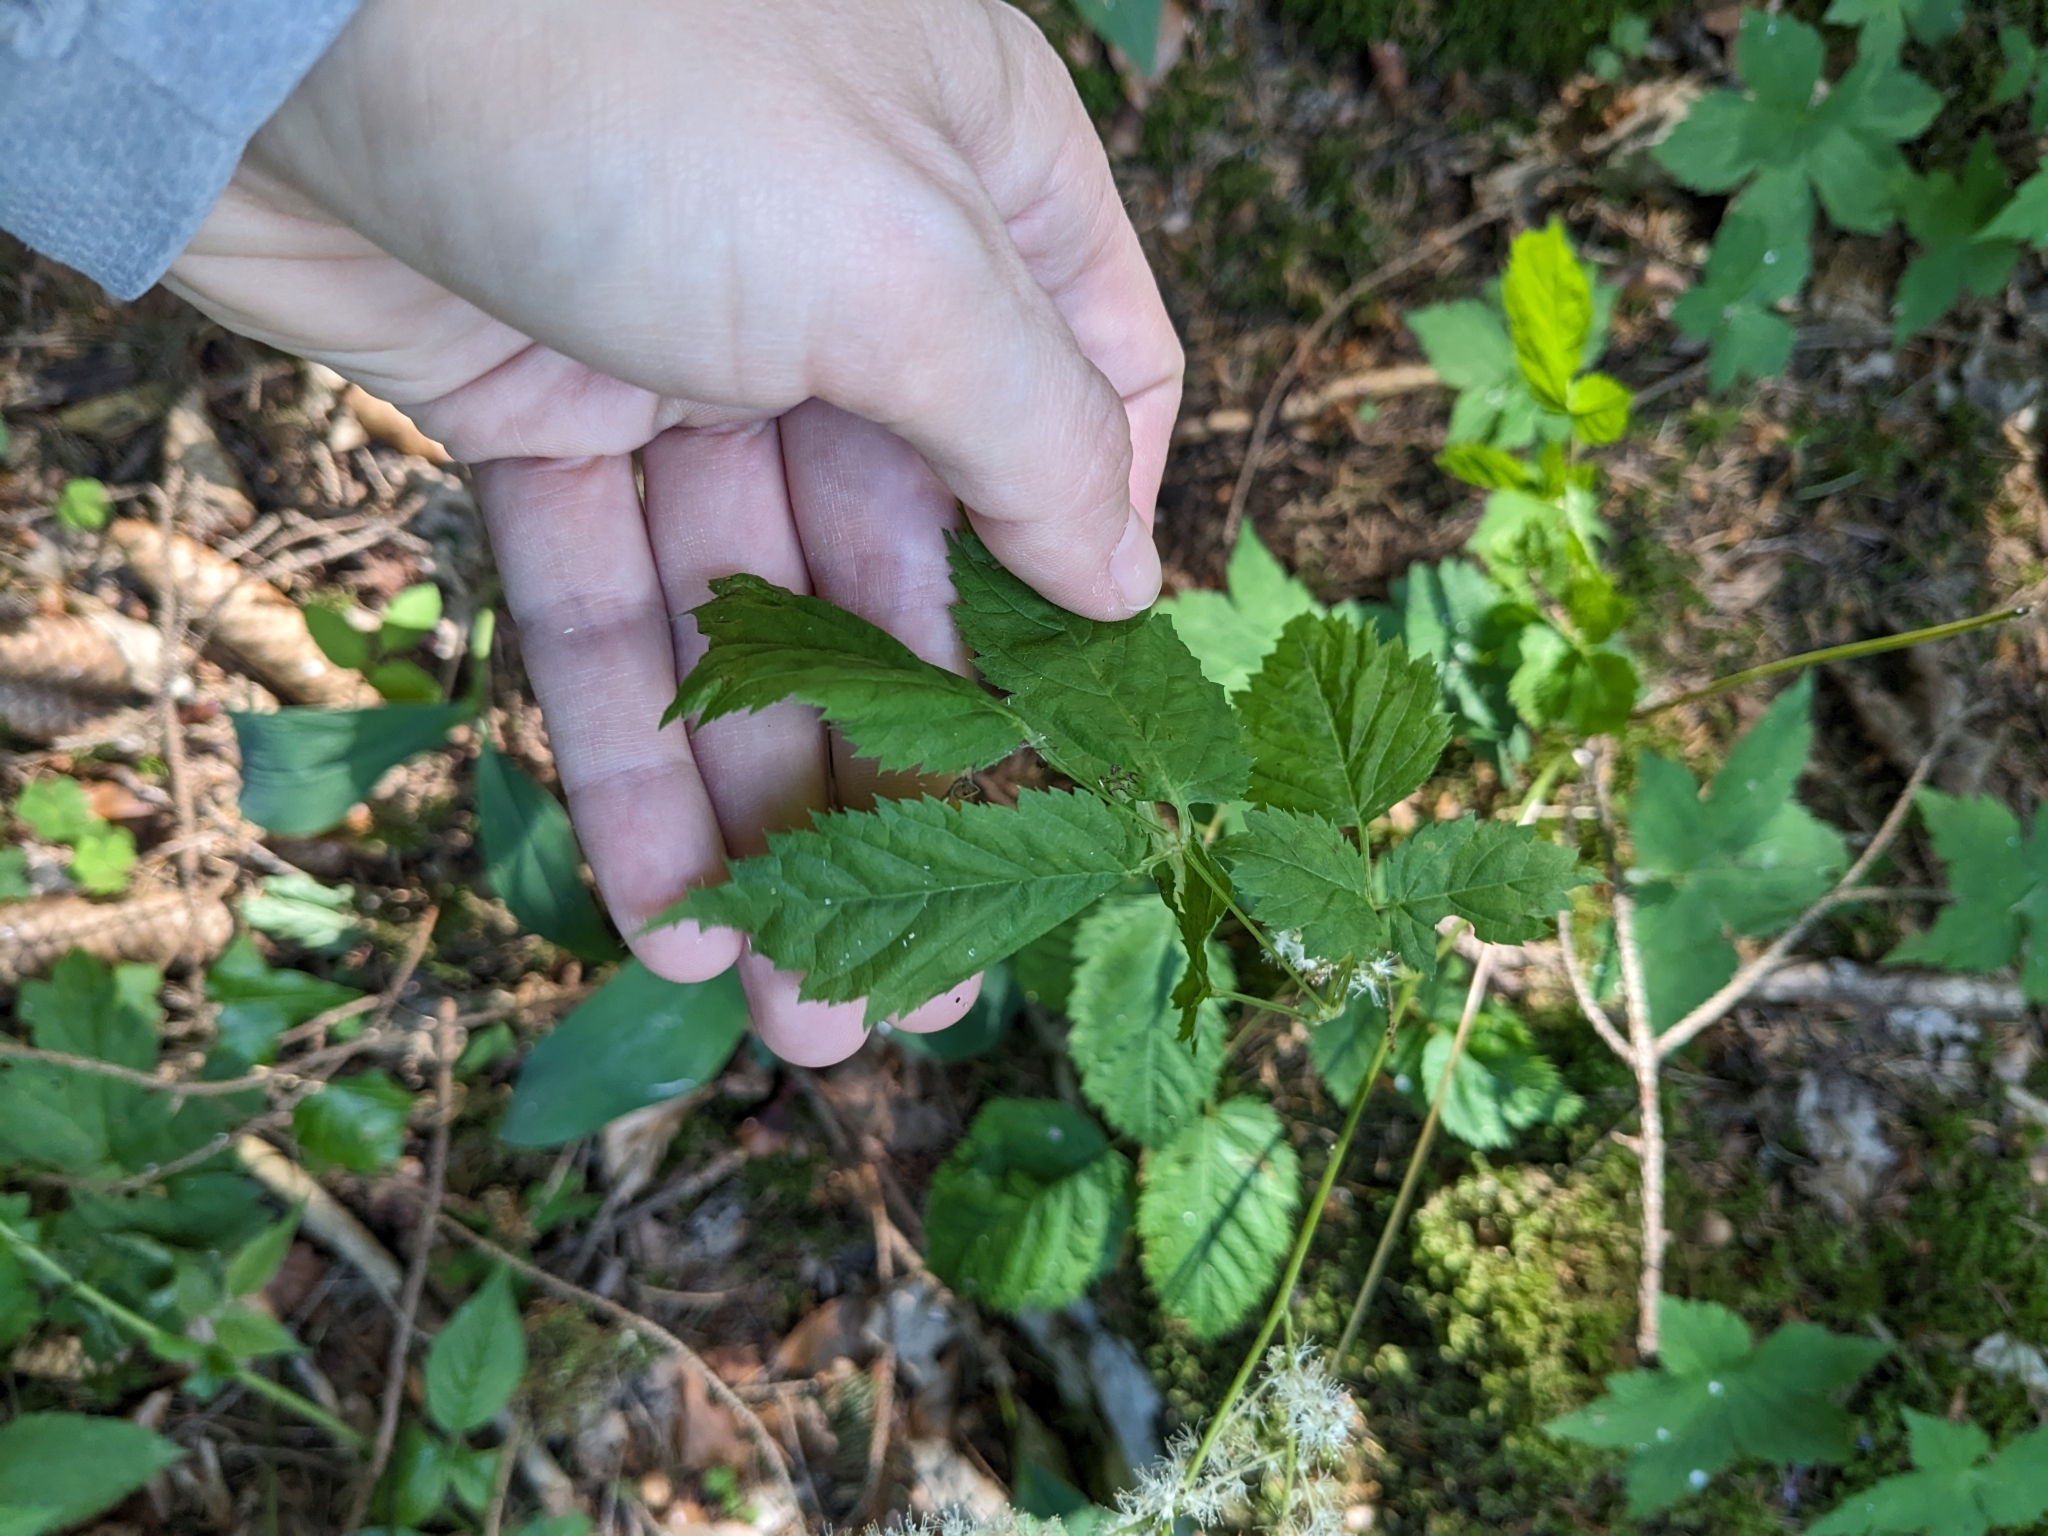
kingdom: Plantae
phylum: Tracheophyta
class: Magnoliopsida
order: Rosales
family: Rosaceae
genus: Aruncus
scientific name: Aruncus dioicus
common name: Buck's-beard
